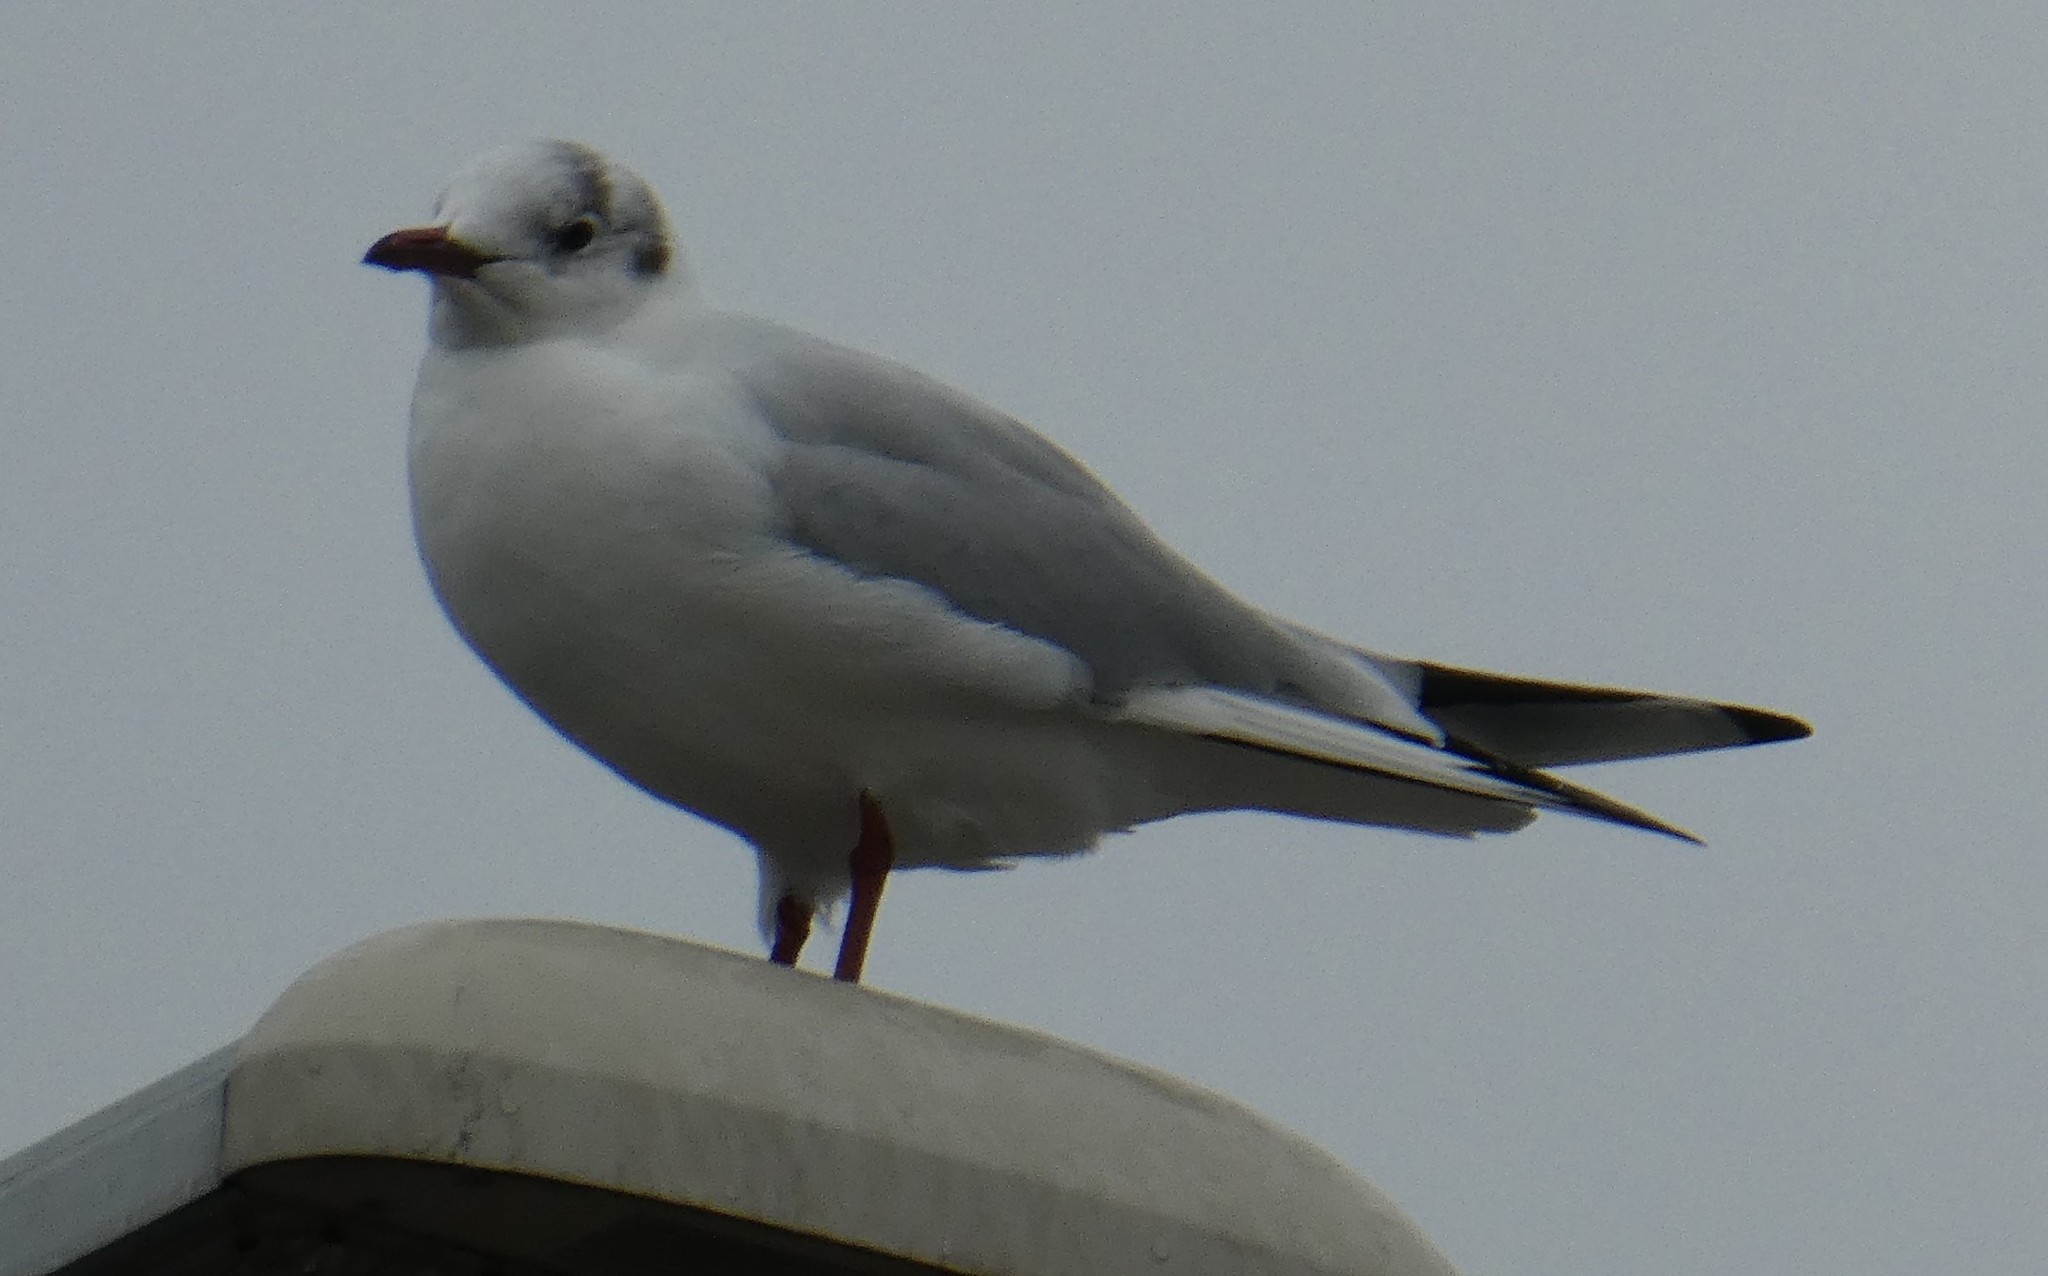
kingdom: Animalia
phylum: Chordata
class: Aves
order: Charadriiformes
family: Laridae
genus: Chroicocephalus
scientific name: Chroicocephalus ridibundus
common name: Black-headed gull
